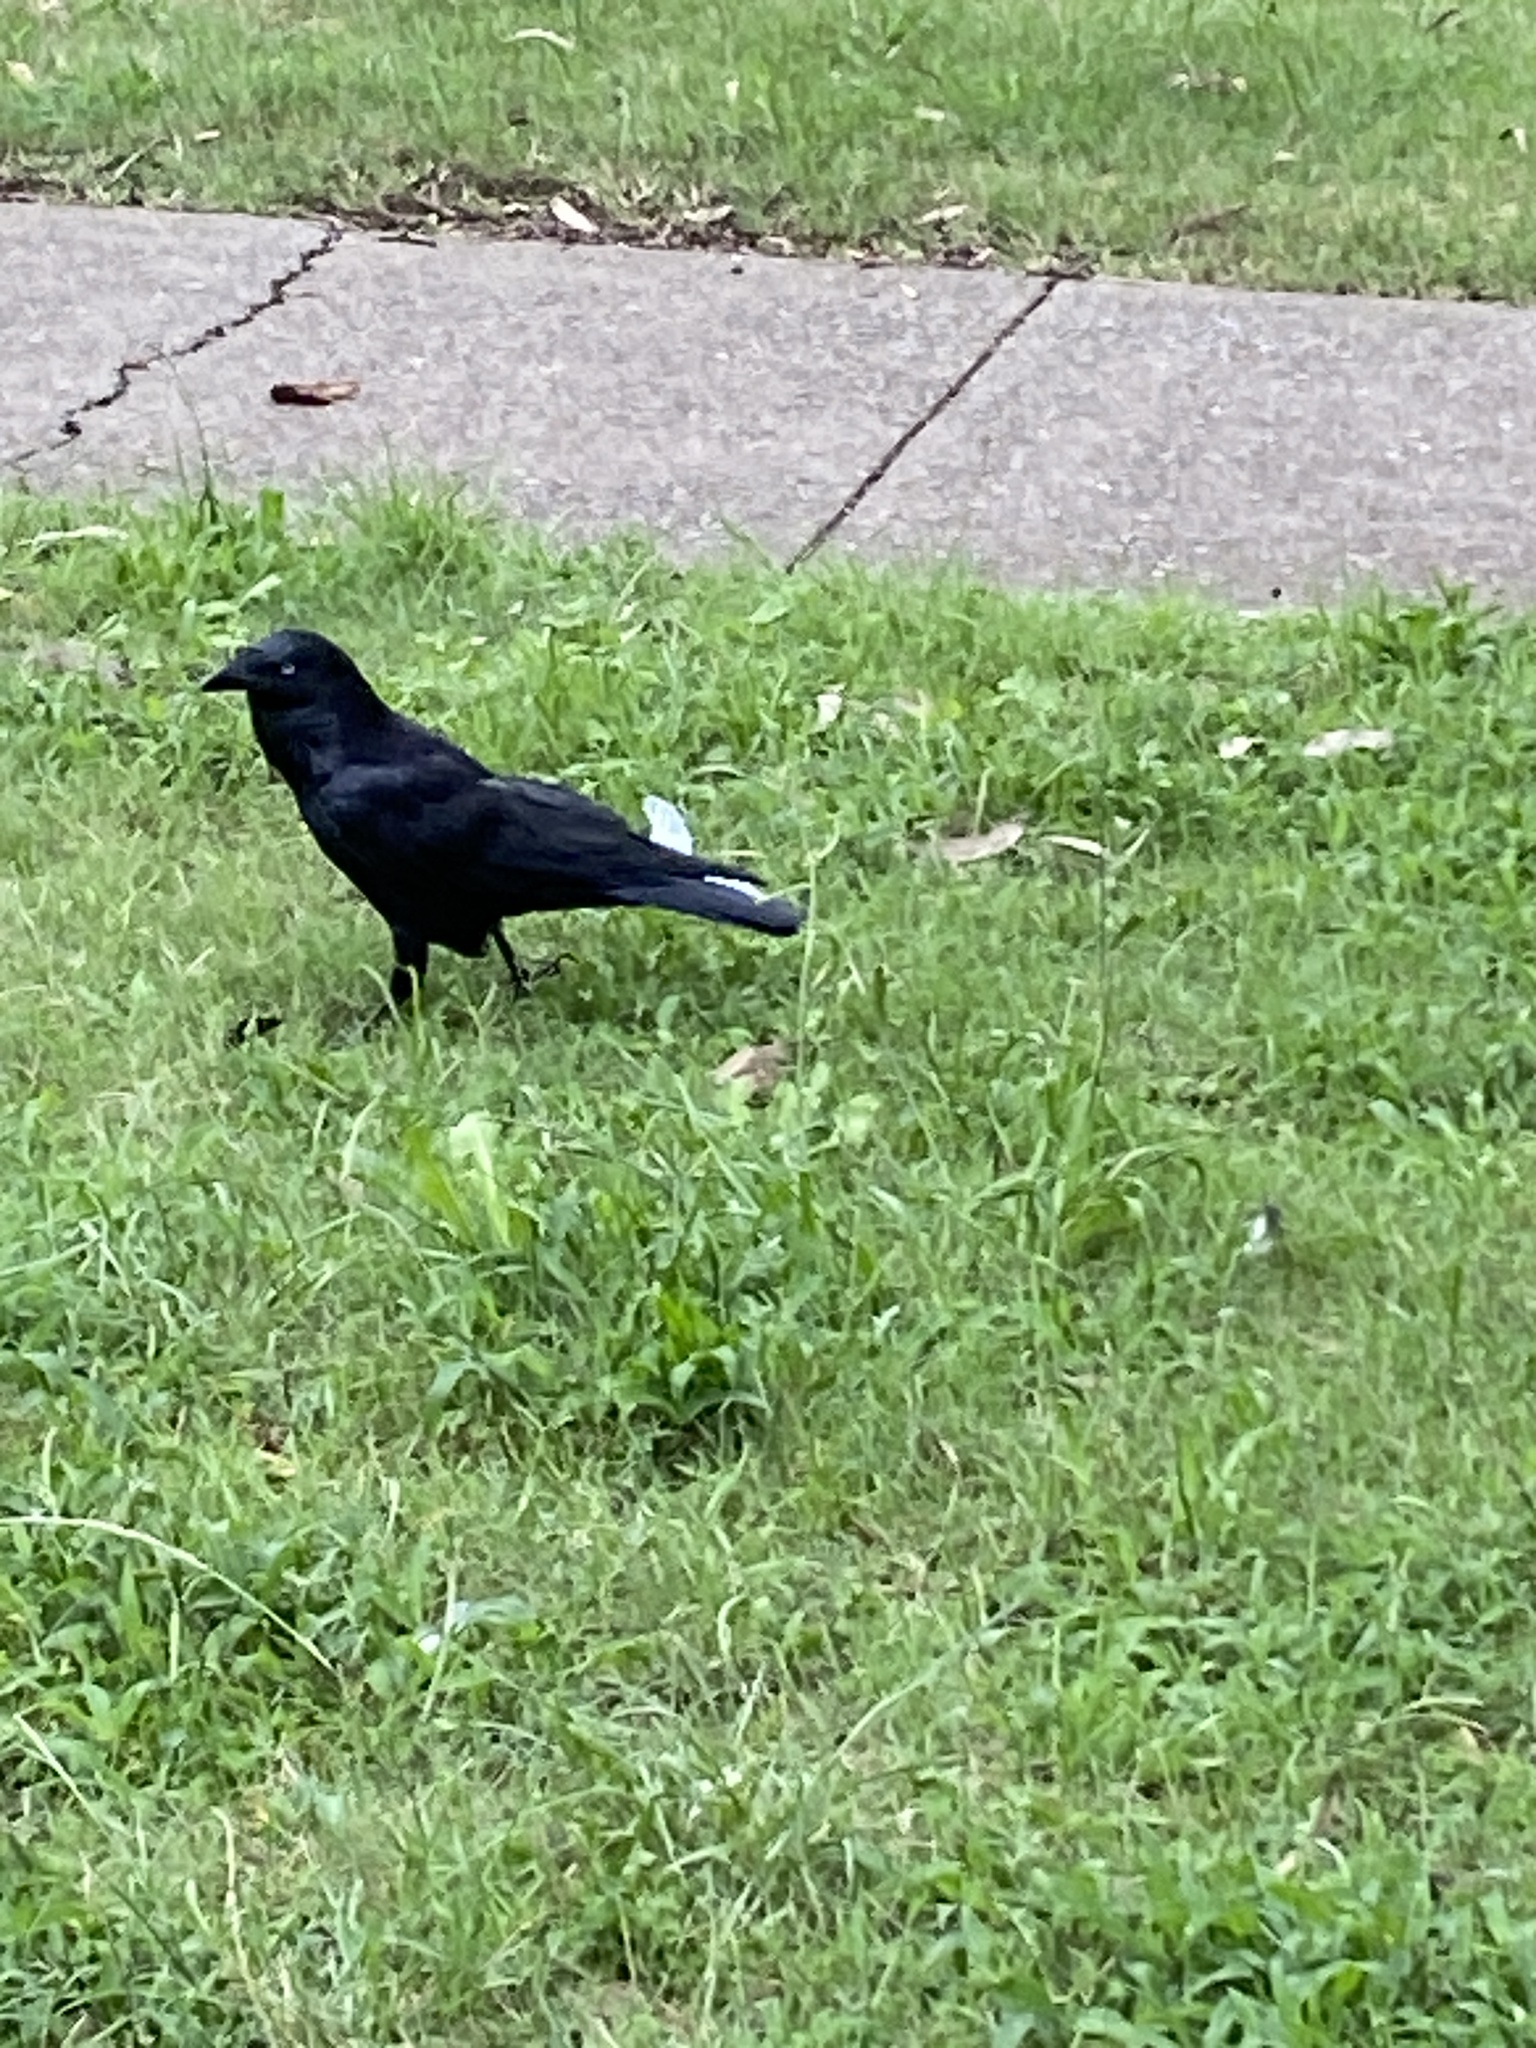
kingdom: Animalia
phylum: Chordata
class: Aves
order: Passeriformes
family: Corvidae
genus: Corvus
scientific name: Corvus coronoides
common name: Australian raven
